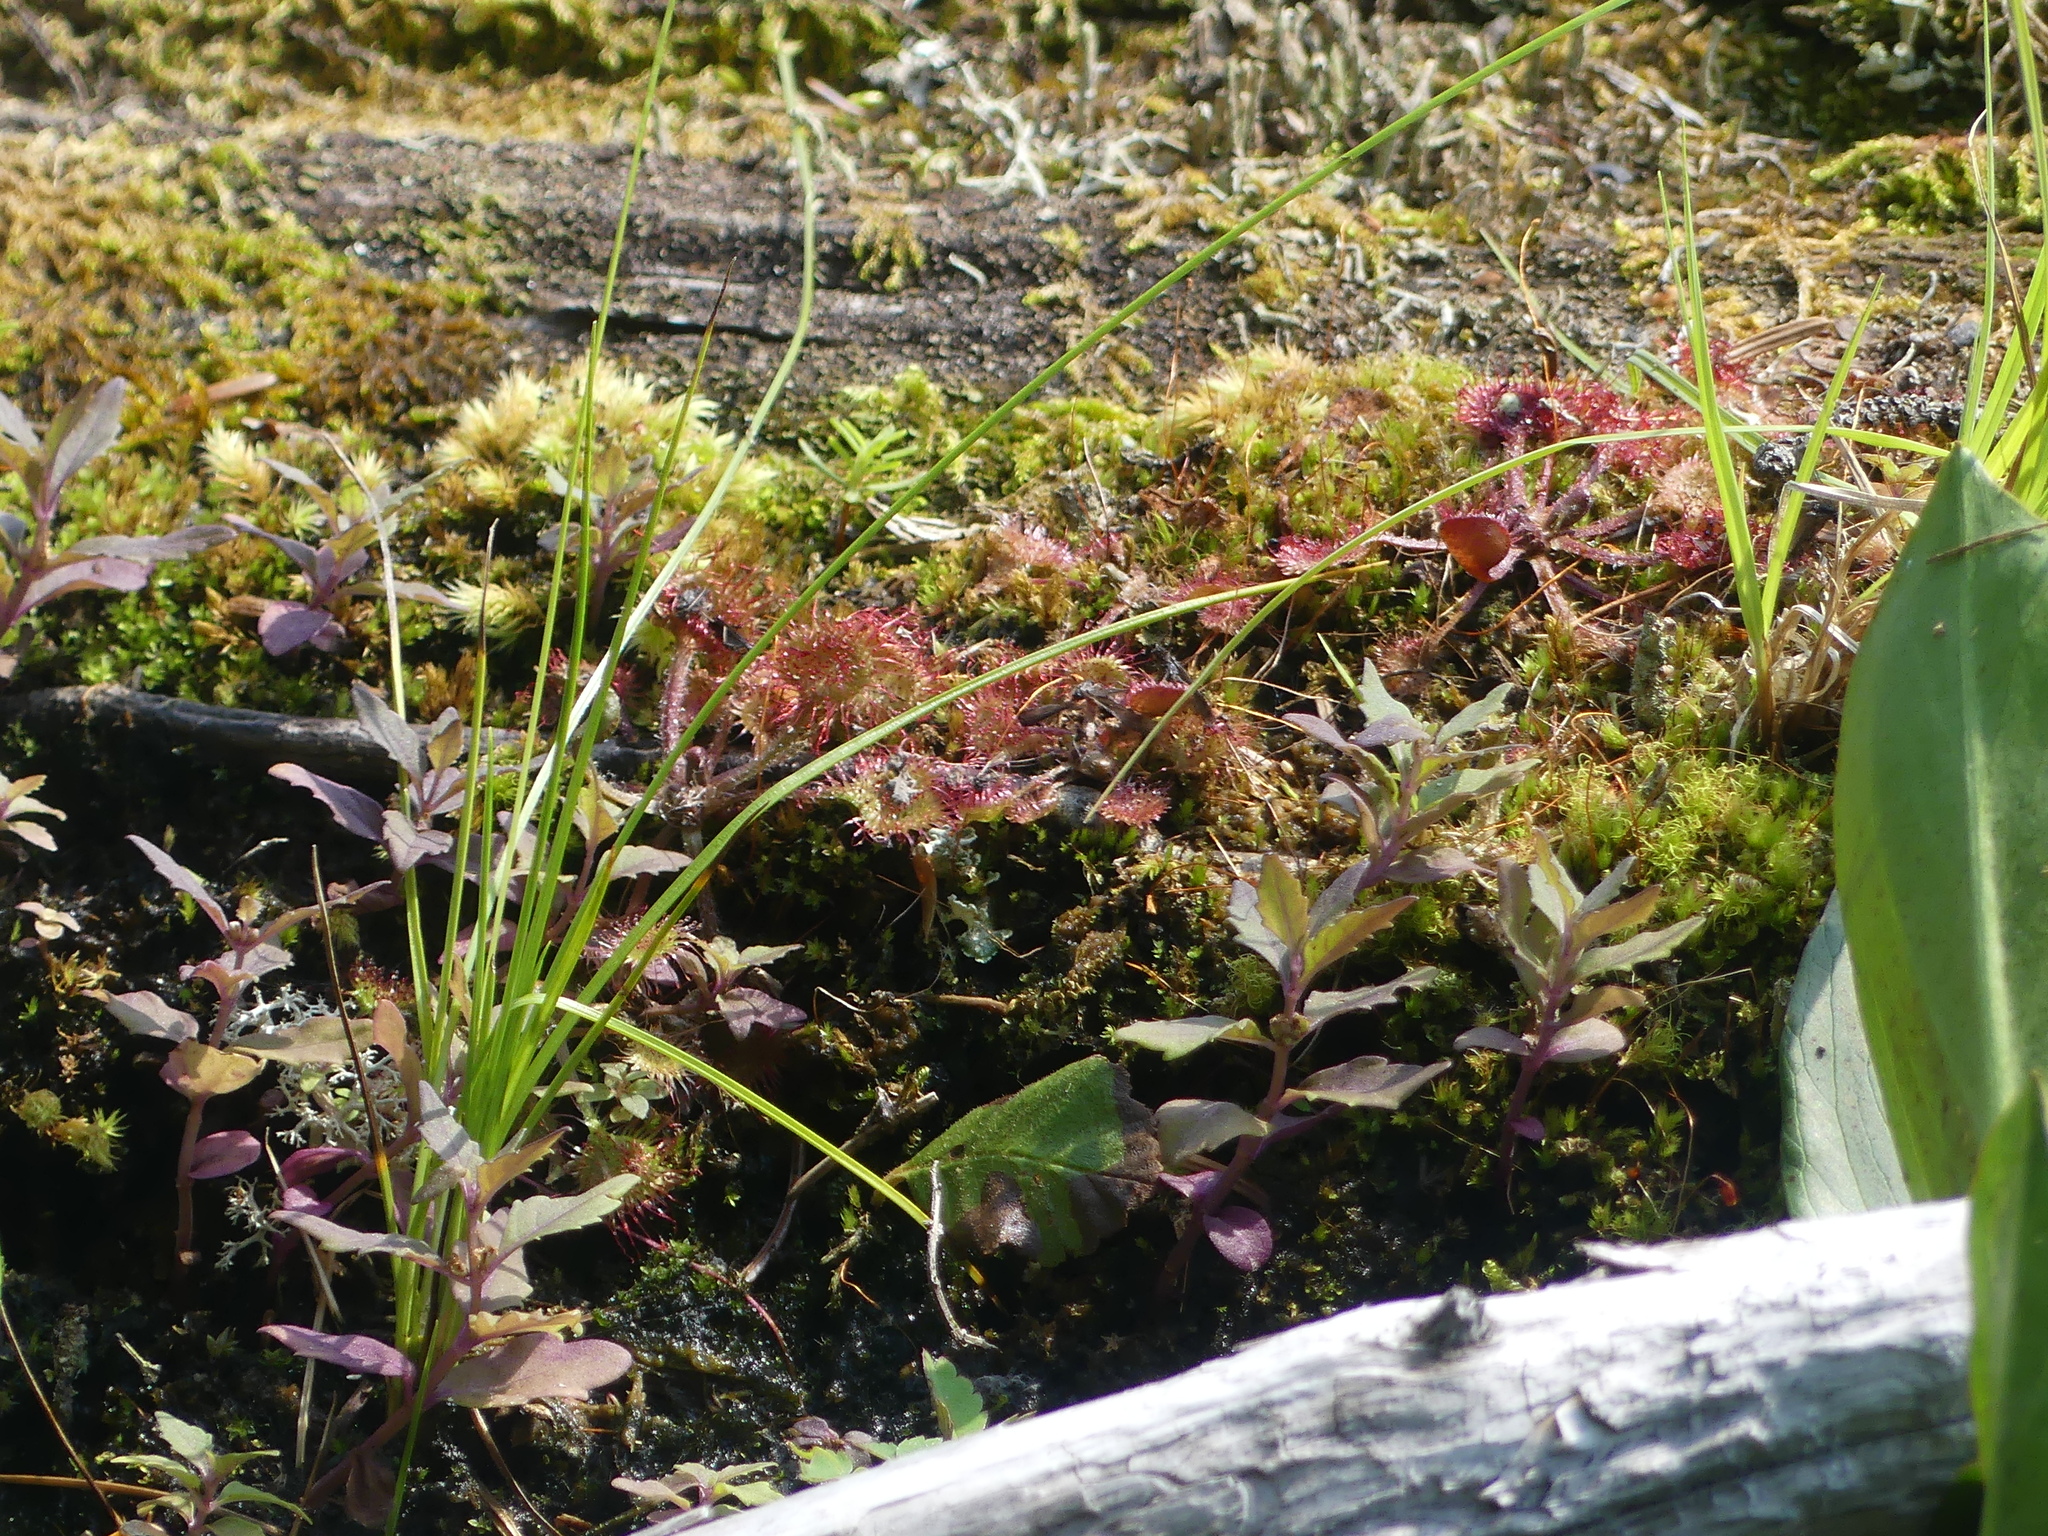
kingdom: Plantae
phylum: Tracheophyta
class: Magnoliopsida
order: Caryophyllales
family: Droseraceae
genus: Drosera
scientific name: Drosera rotundifolia
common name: Round-leaved sundew
